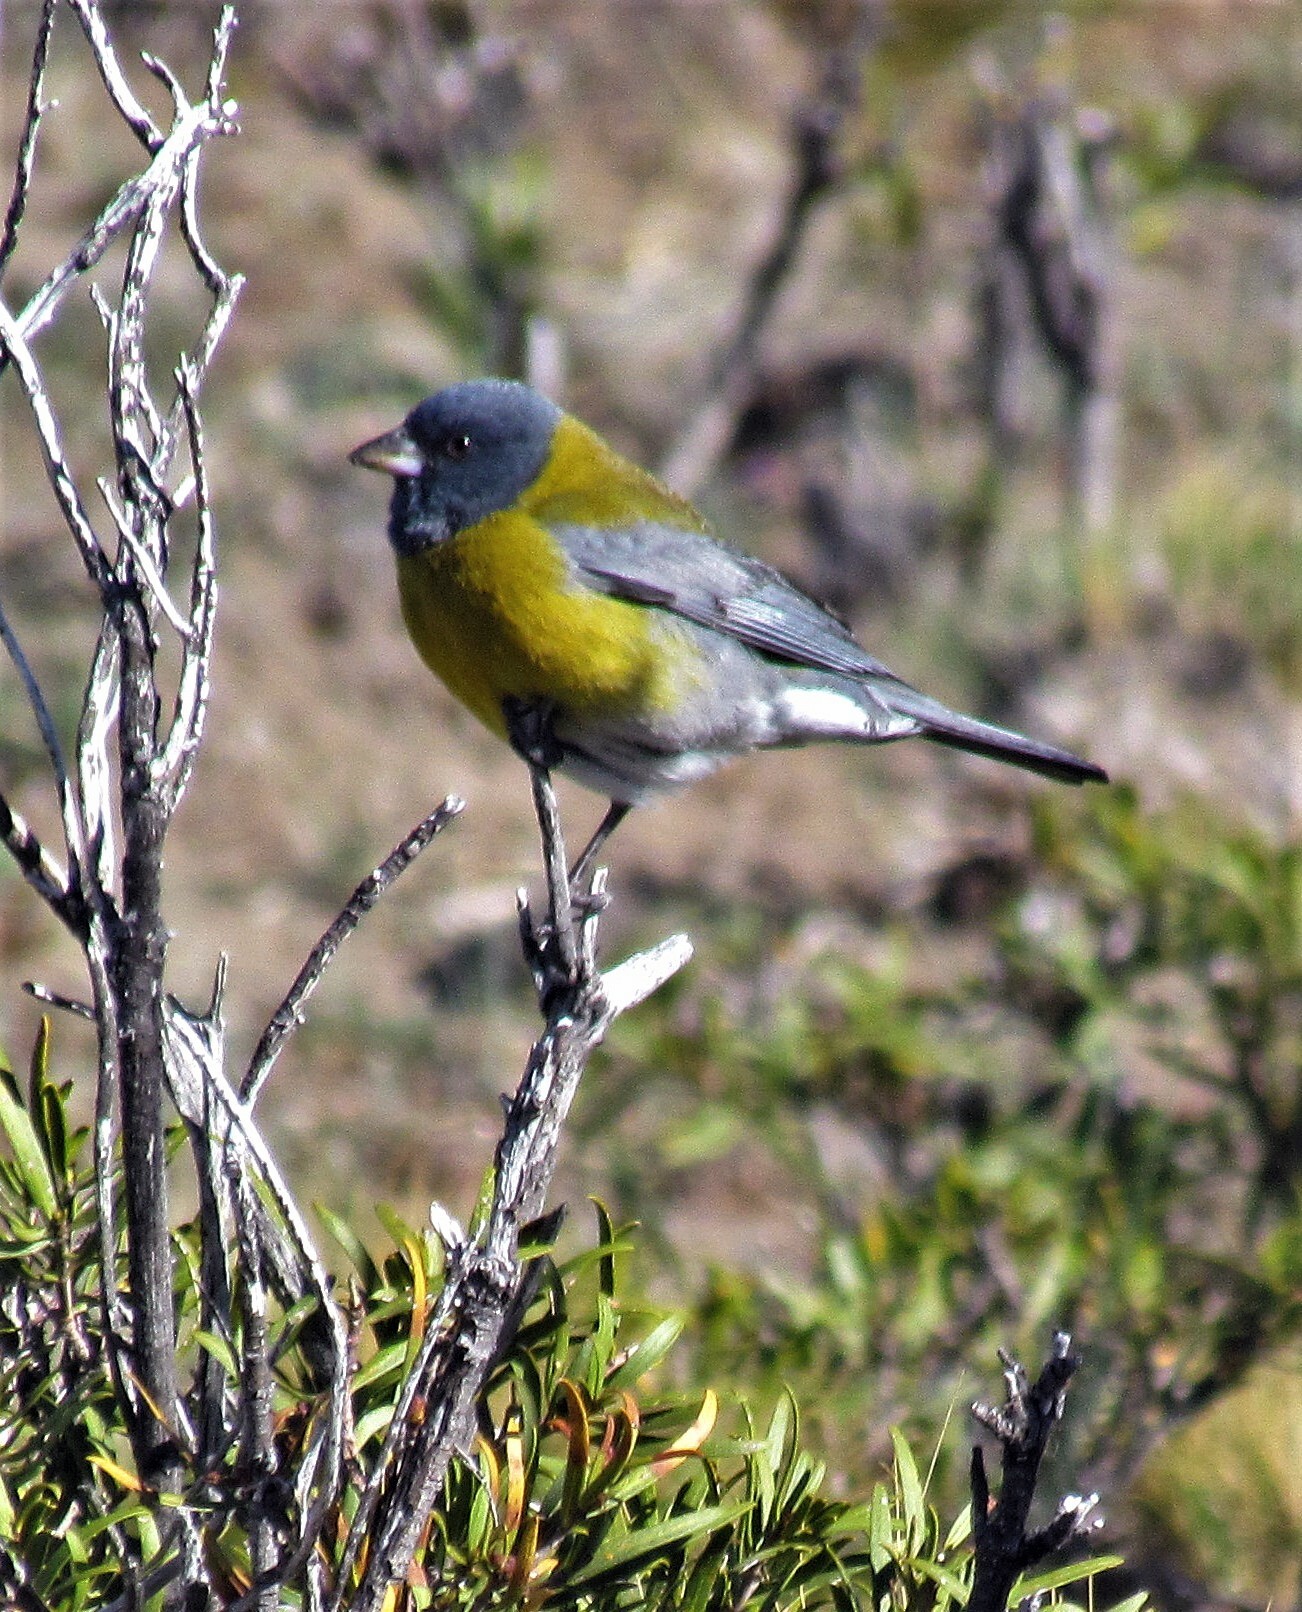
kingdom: Animalia
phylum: Chordata
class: Aves
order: Passeriformes
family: Thraupidae
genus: Phrygilus
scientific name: Phrygilus gayi
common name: Grey-hooded sierra finch
